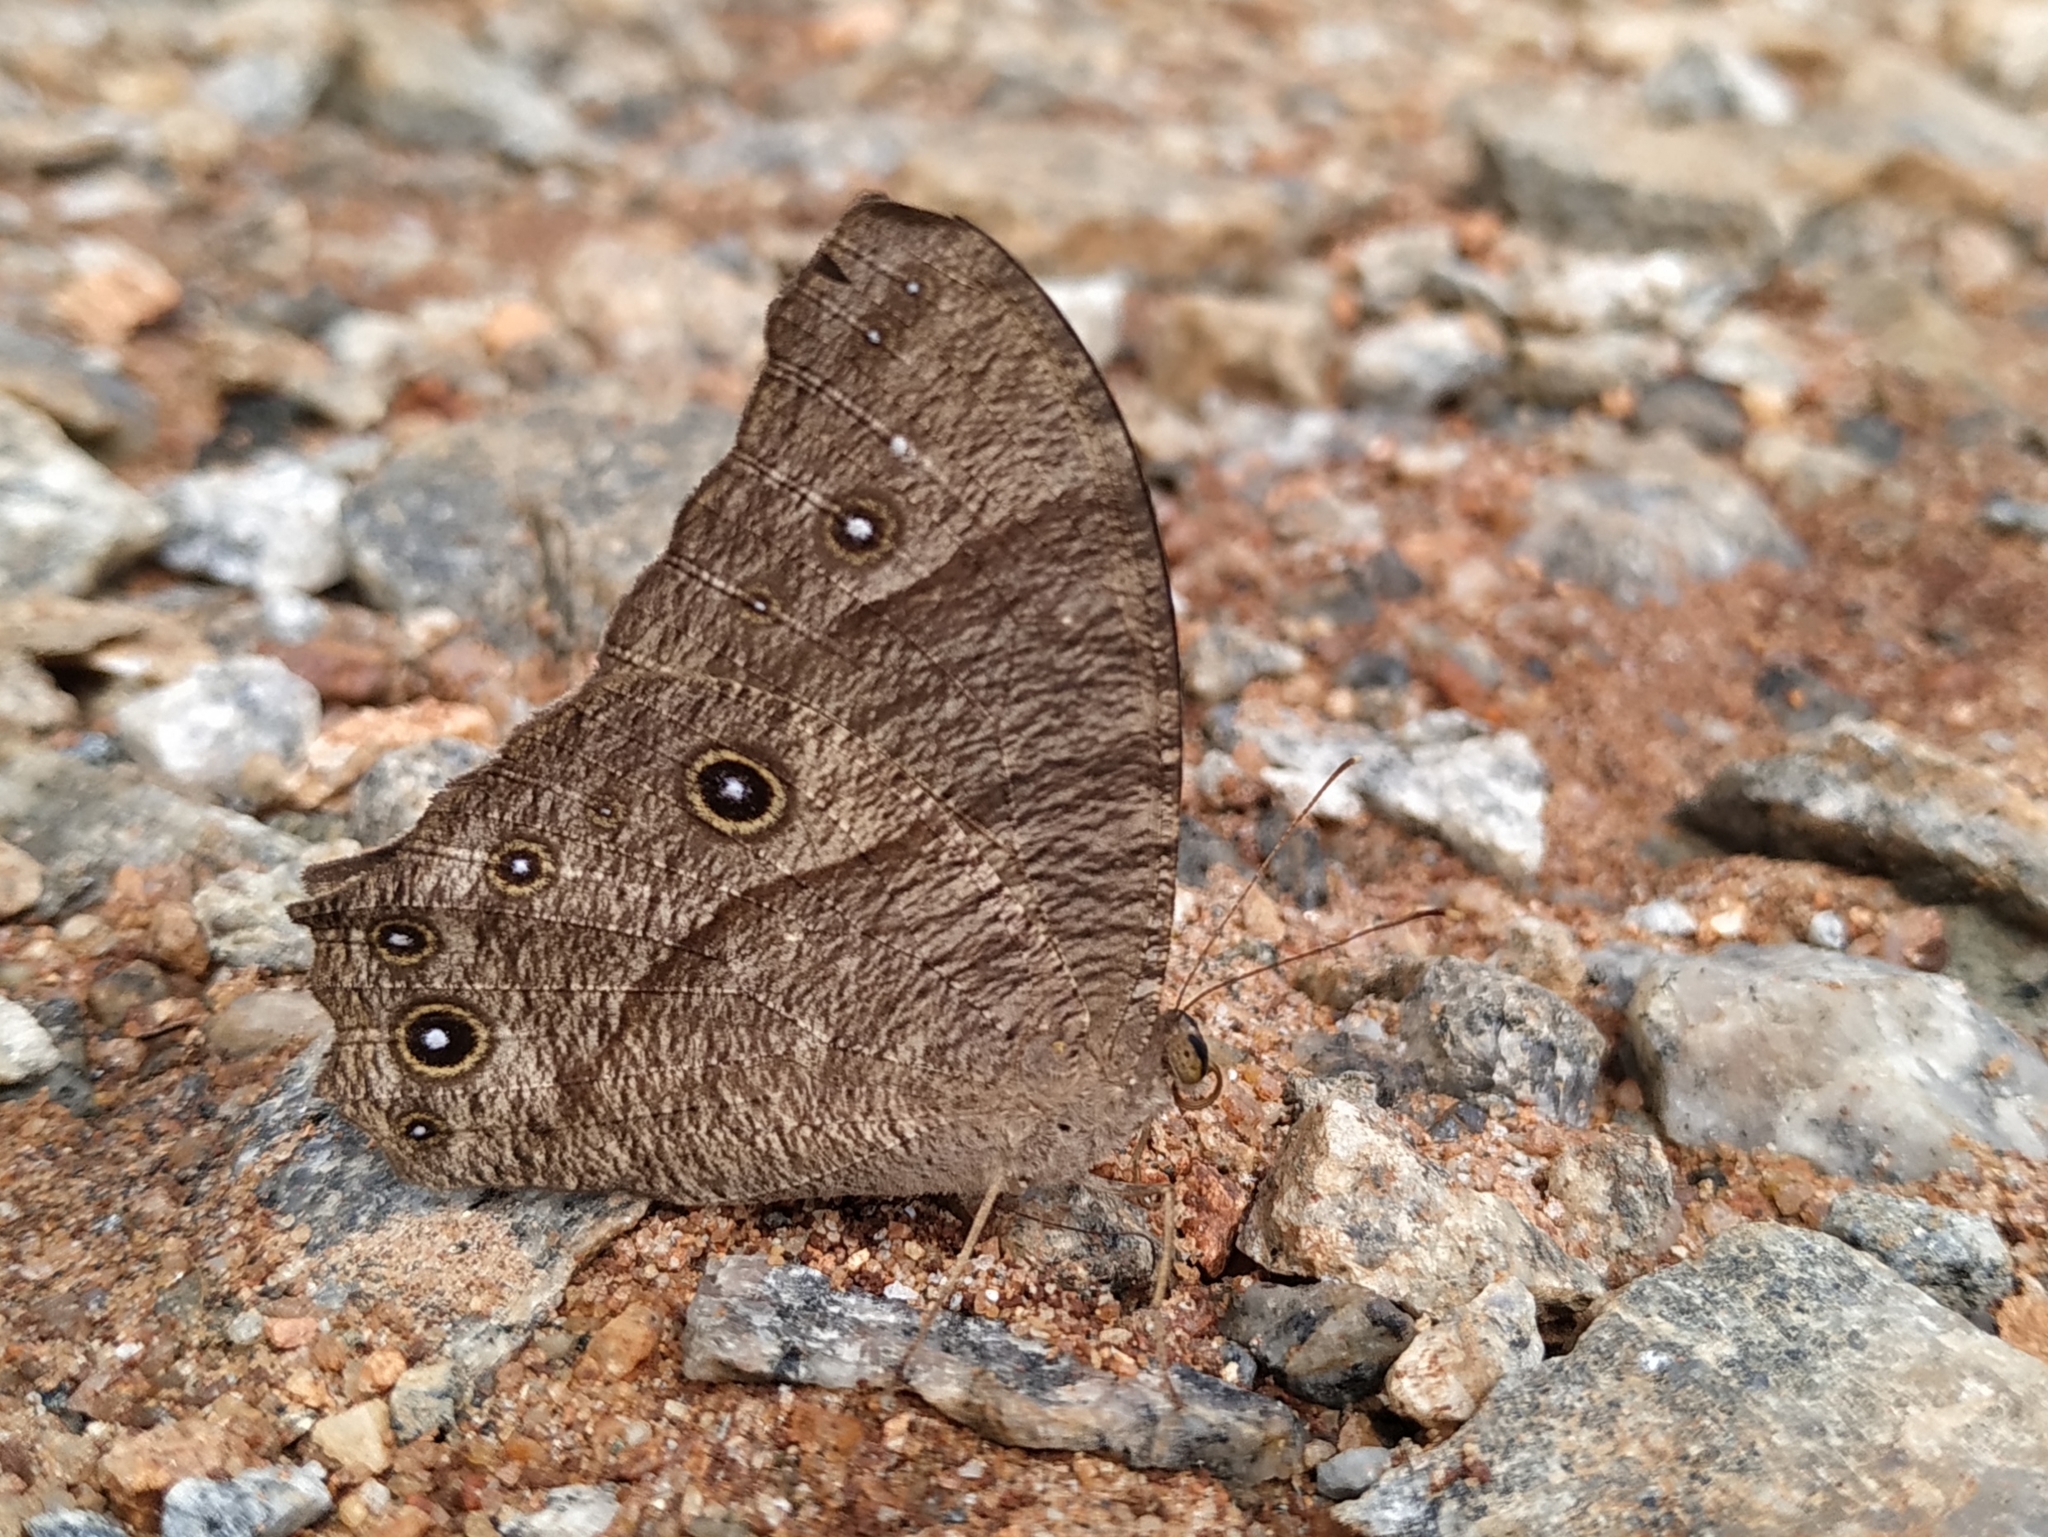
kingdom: Animalia
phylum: Arthropoda
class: Insecta
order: Lepidoptera
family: Nymphalidae
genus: Melanitis
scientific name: Melanitis leda
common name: Twilight brown
